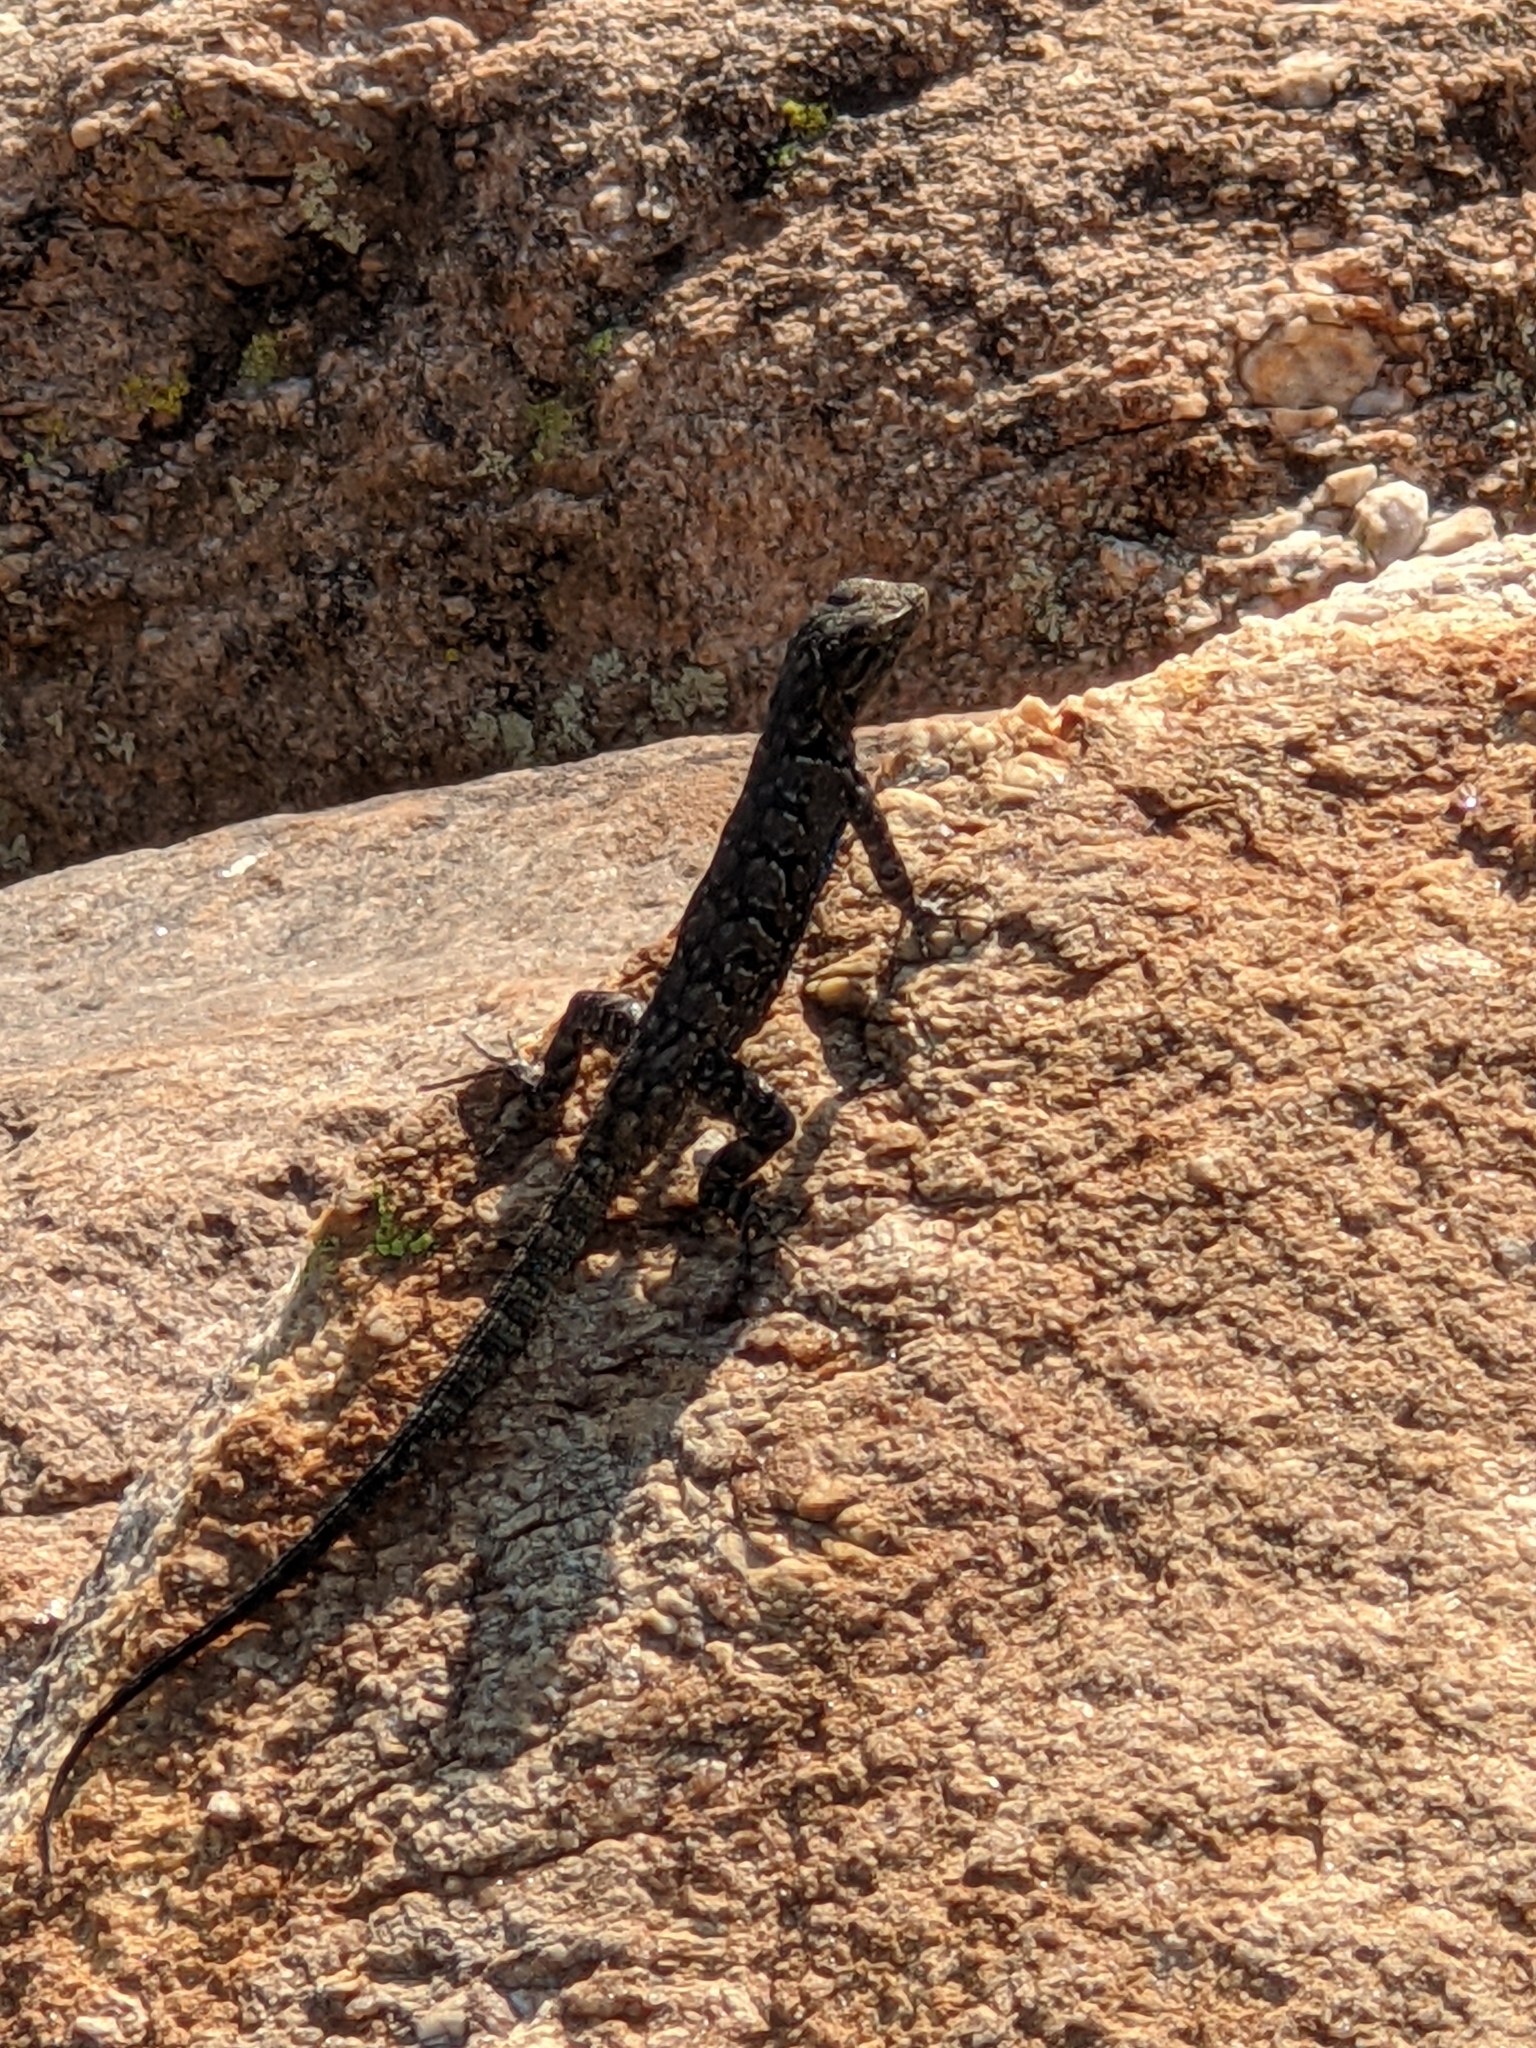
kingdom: Animalia
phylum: Chordata
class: Squamata
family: Phrynosomatidae
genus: Urosaurus
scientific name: Urosaurus ornatus
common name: Ornate tree lizard
